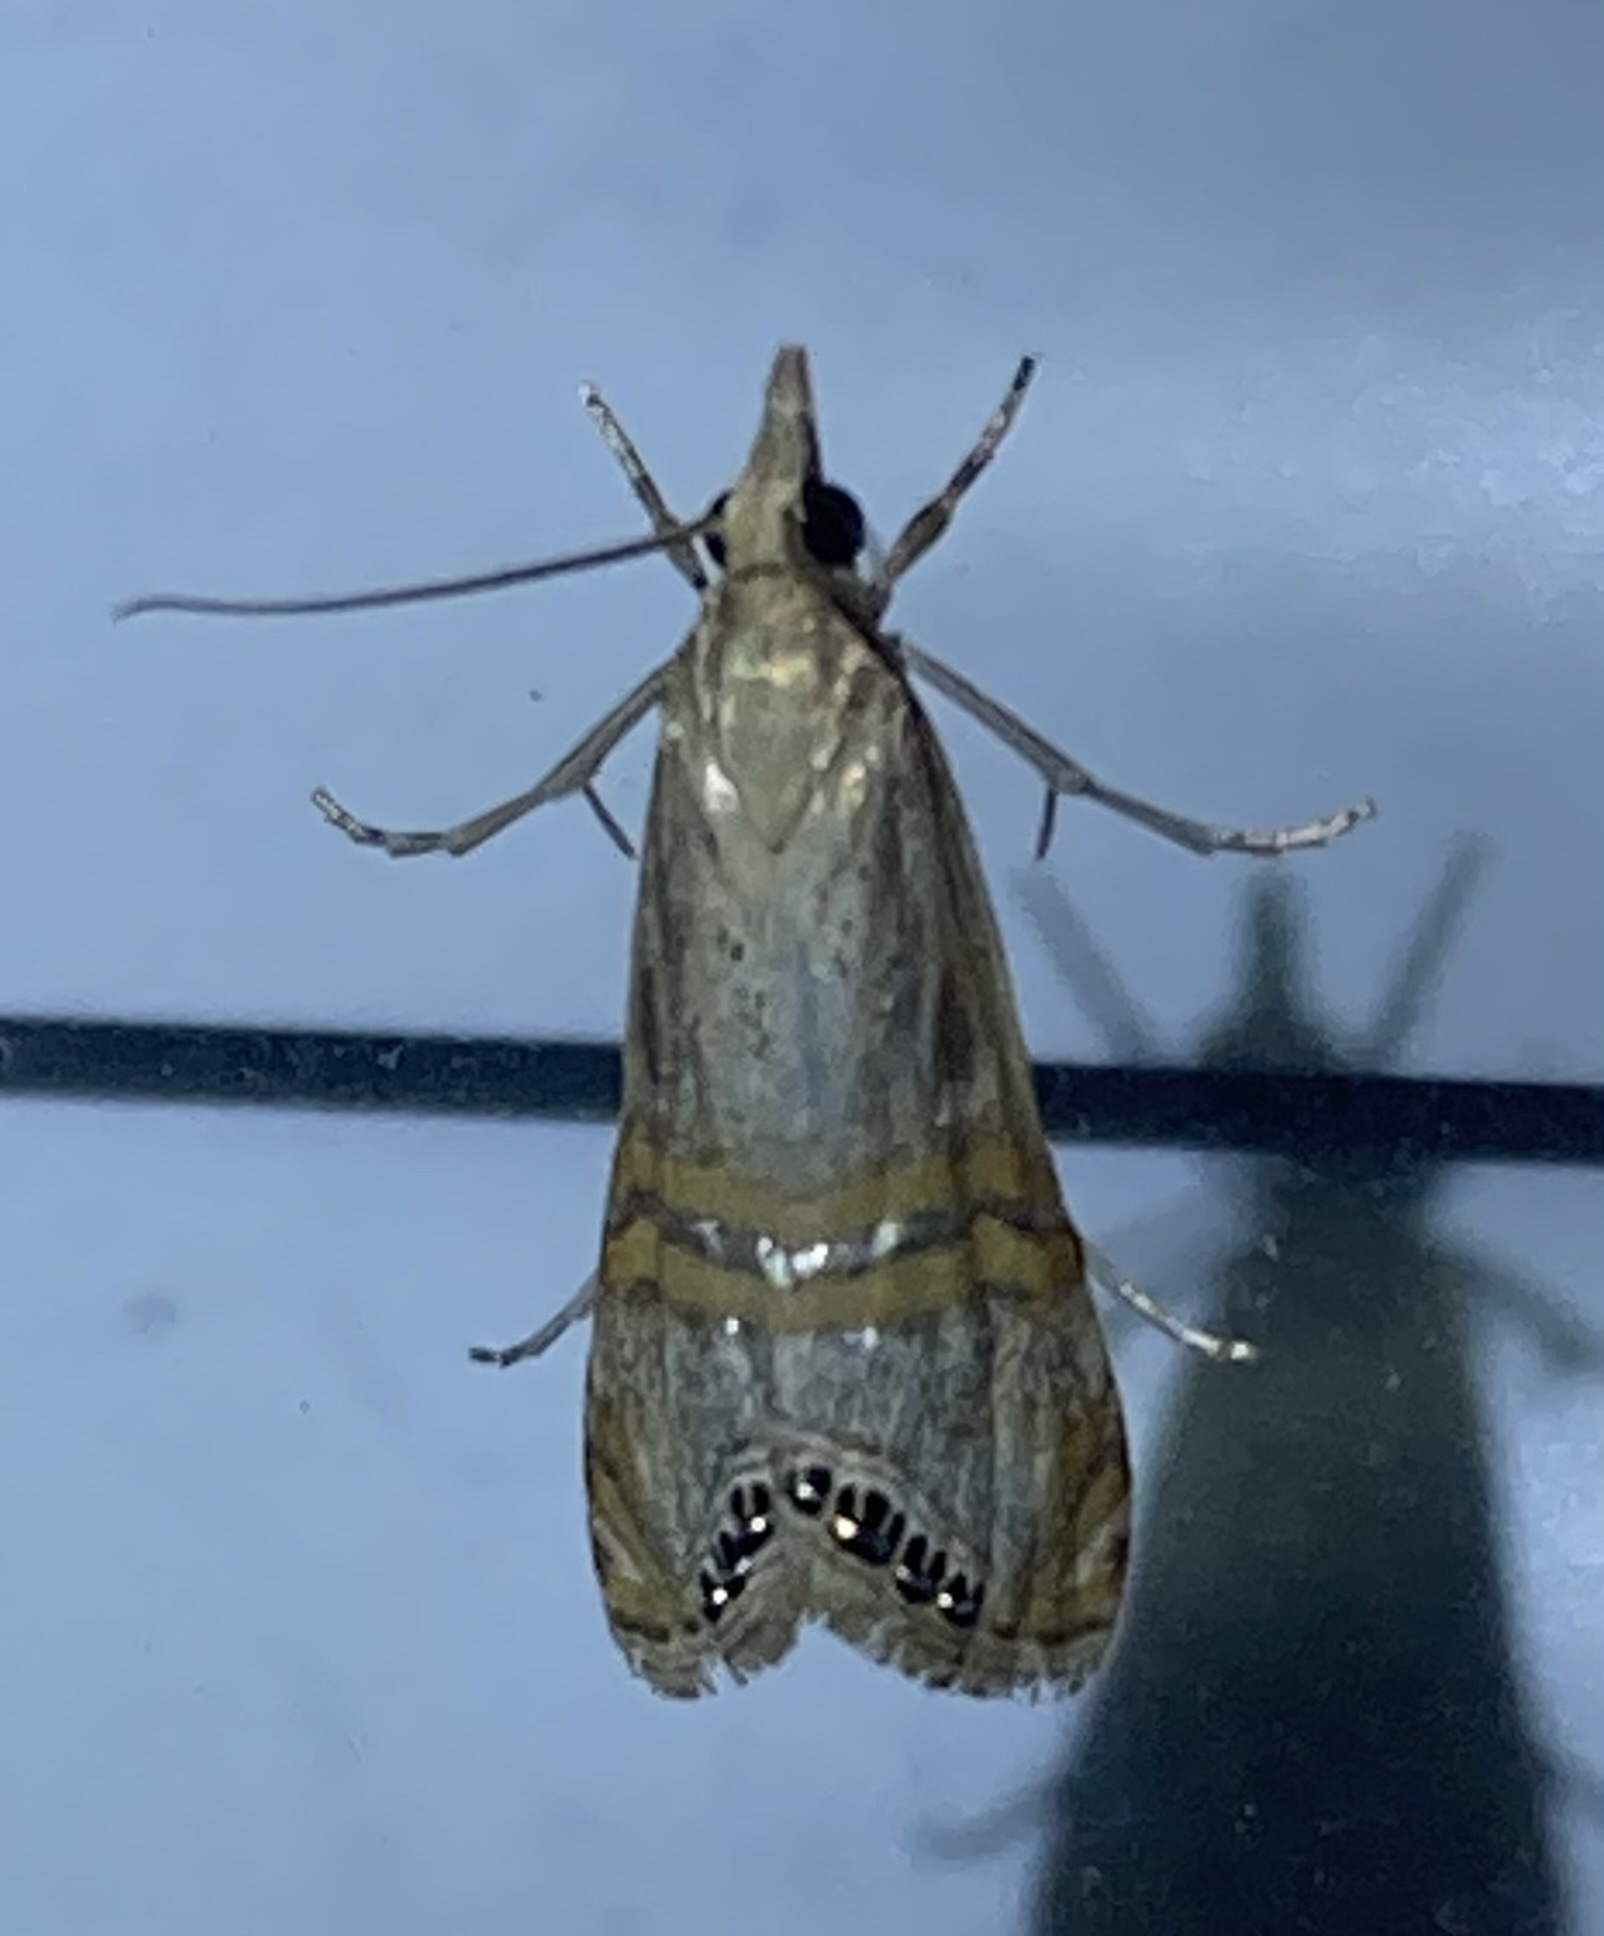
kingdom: Animalia
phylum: Arthropoda
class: Insecta
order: Lepidoptera
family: Crambidae
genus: Euchromius
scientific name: Euchromius ocellea
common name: Necklace veneer moth
